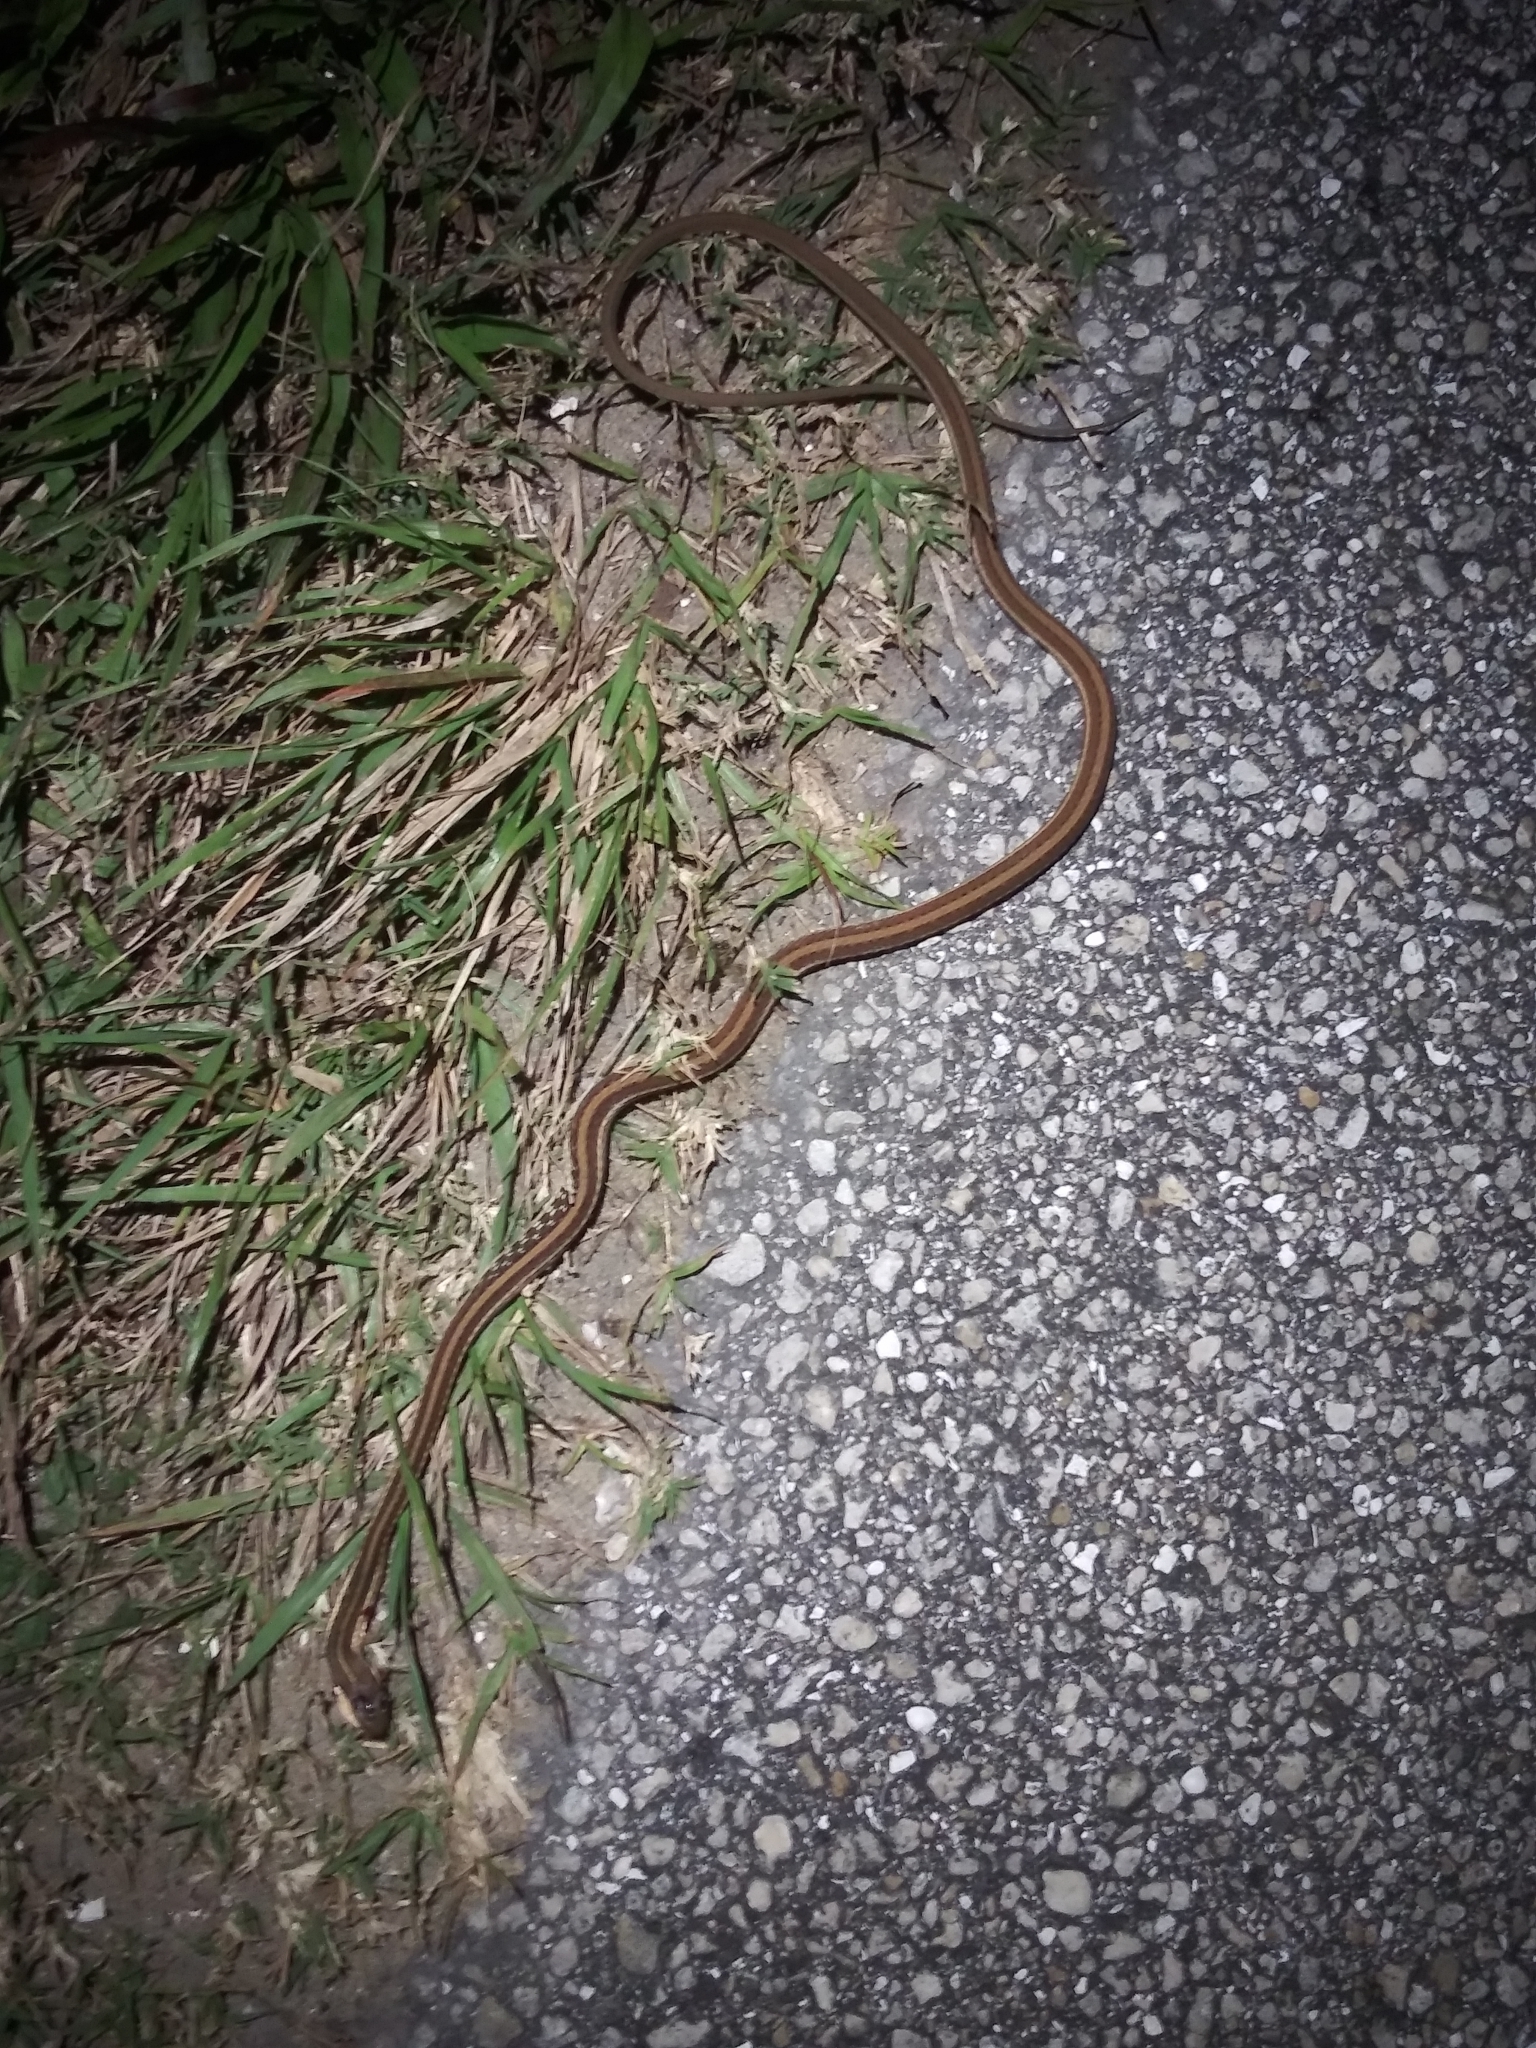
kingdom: Animalia
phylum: Chordata
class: Squamata
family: Colubridae
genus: Thamnophis
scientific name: Thamnophis saurita
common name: Eastern ribbonsnake
